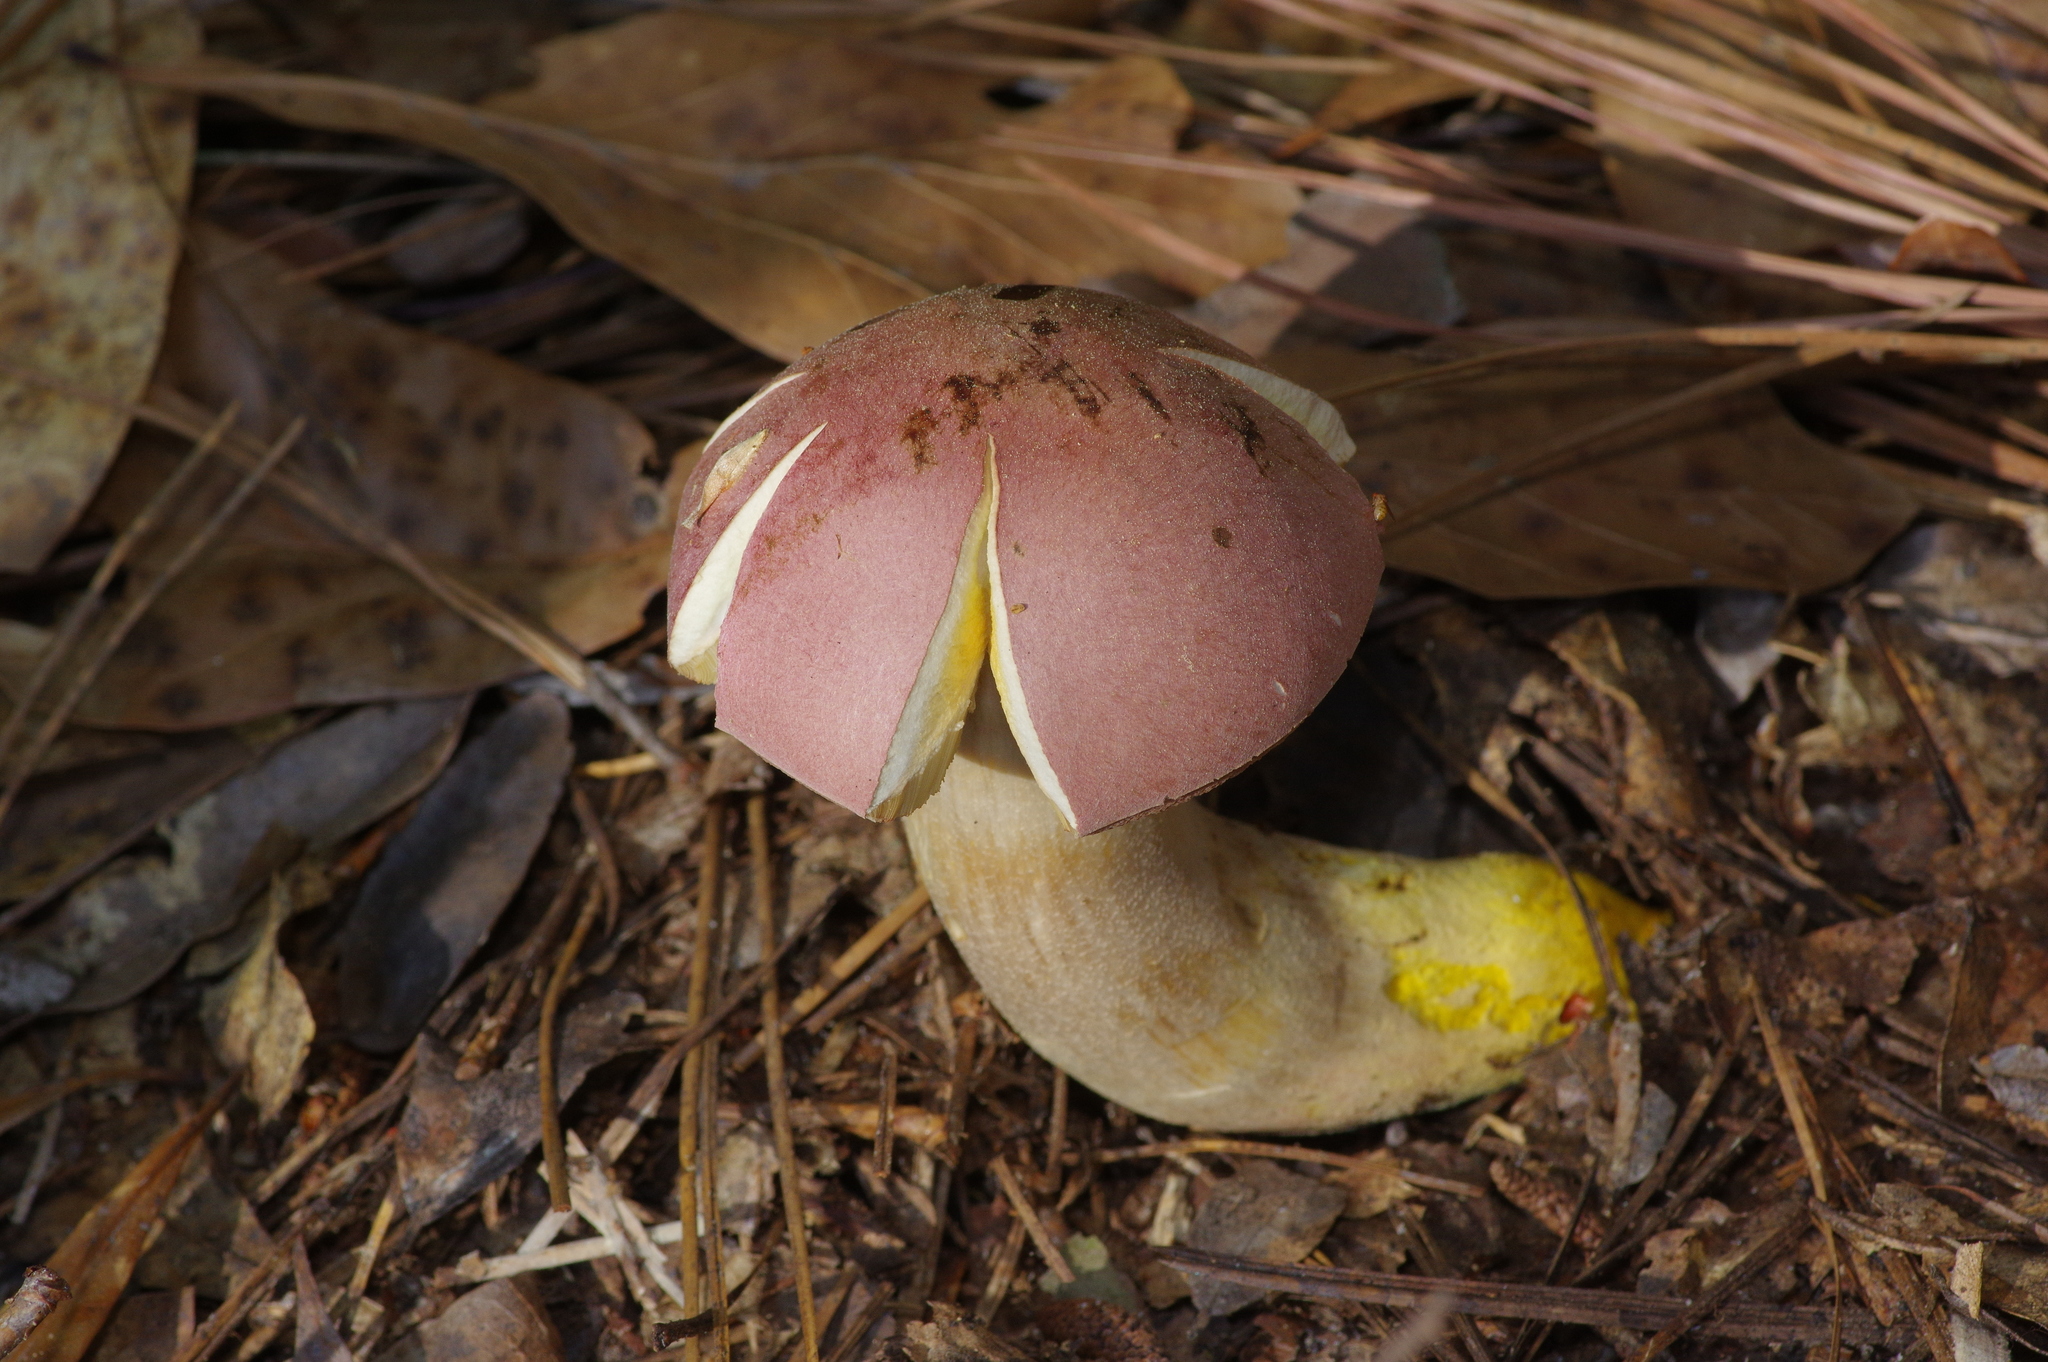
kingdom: Fungi
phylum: Basidiomycota
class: Agaricomycetes
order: Boletales
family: Boletaceae
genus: Harrya
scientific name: Harrya chromipes
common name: Chrome-footed bolete
